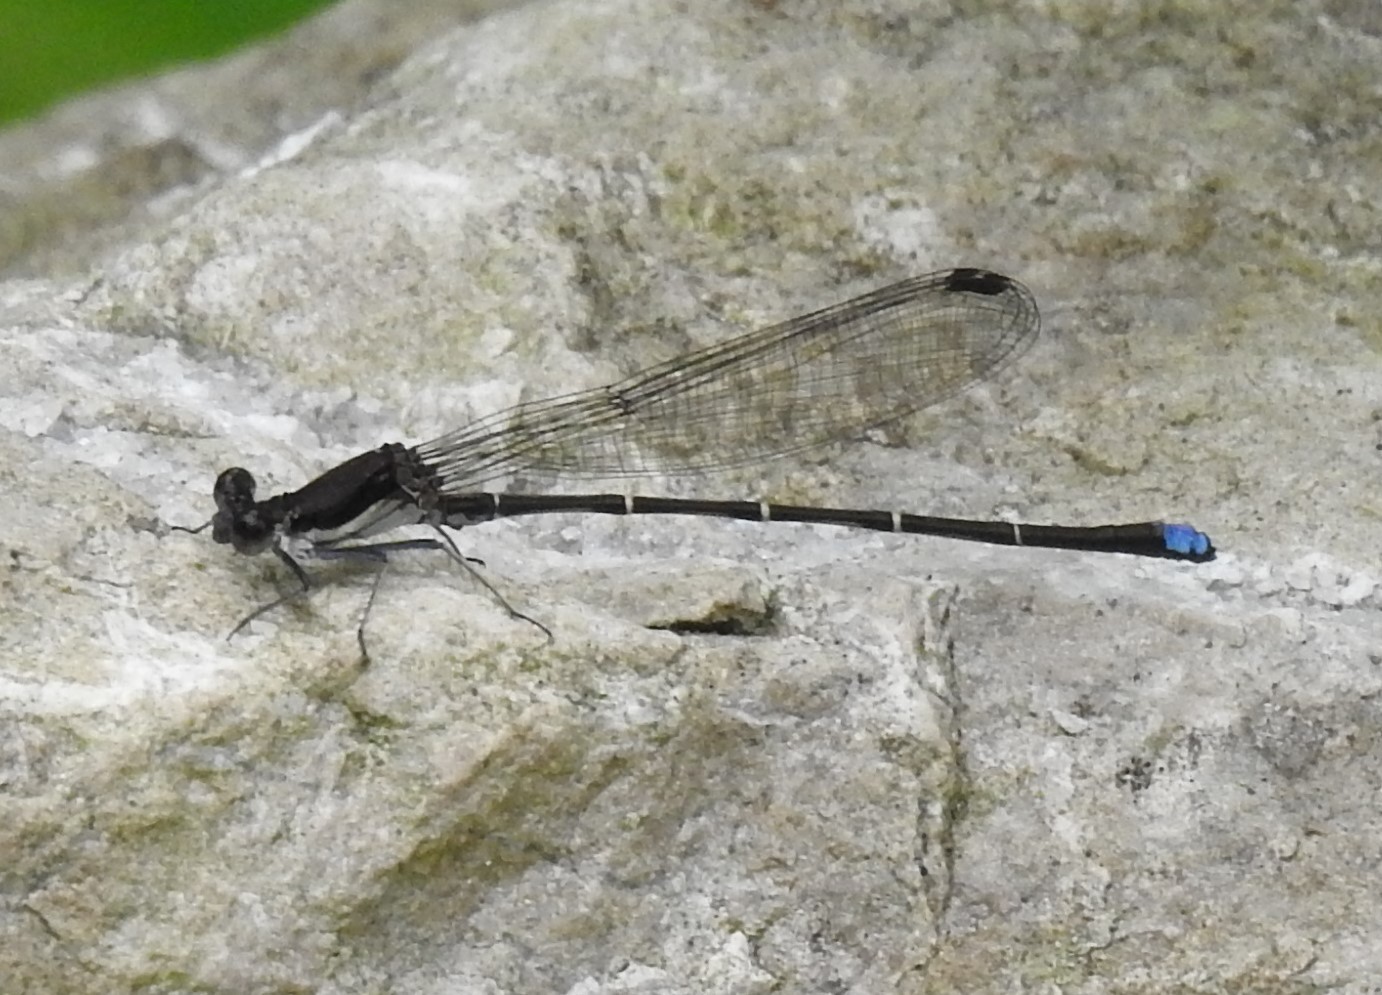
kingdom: Animalia
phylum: Arthropoda
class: Insecta
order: Odonata
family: Coenagrionidae
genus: Argia
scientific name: Argia tibialis
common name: Blue-tipped dancer
